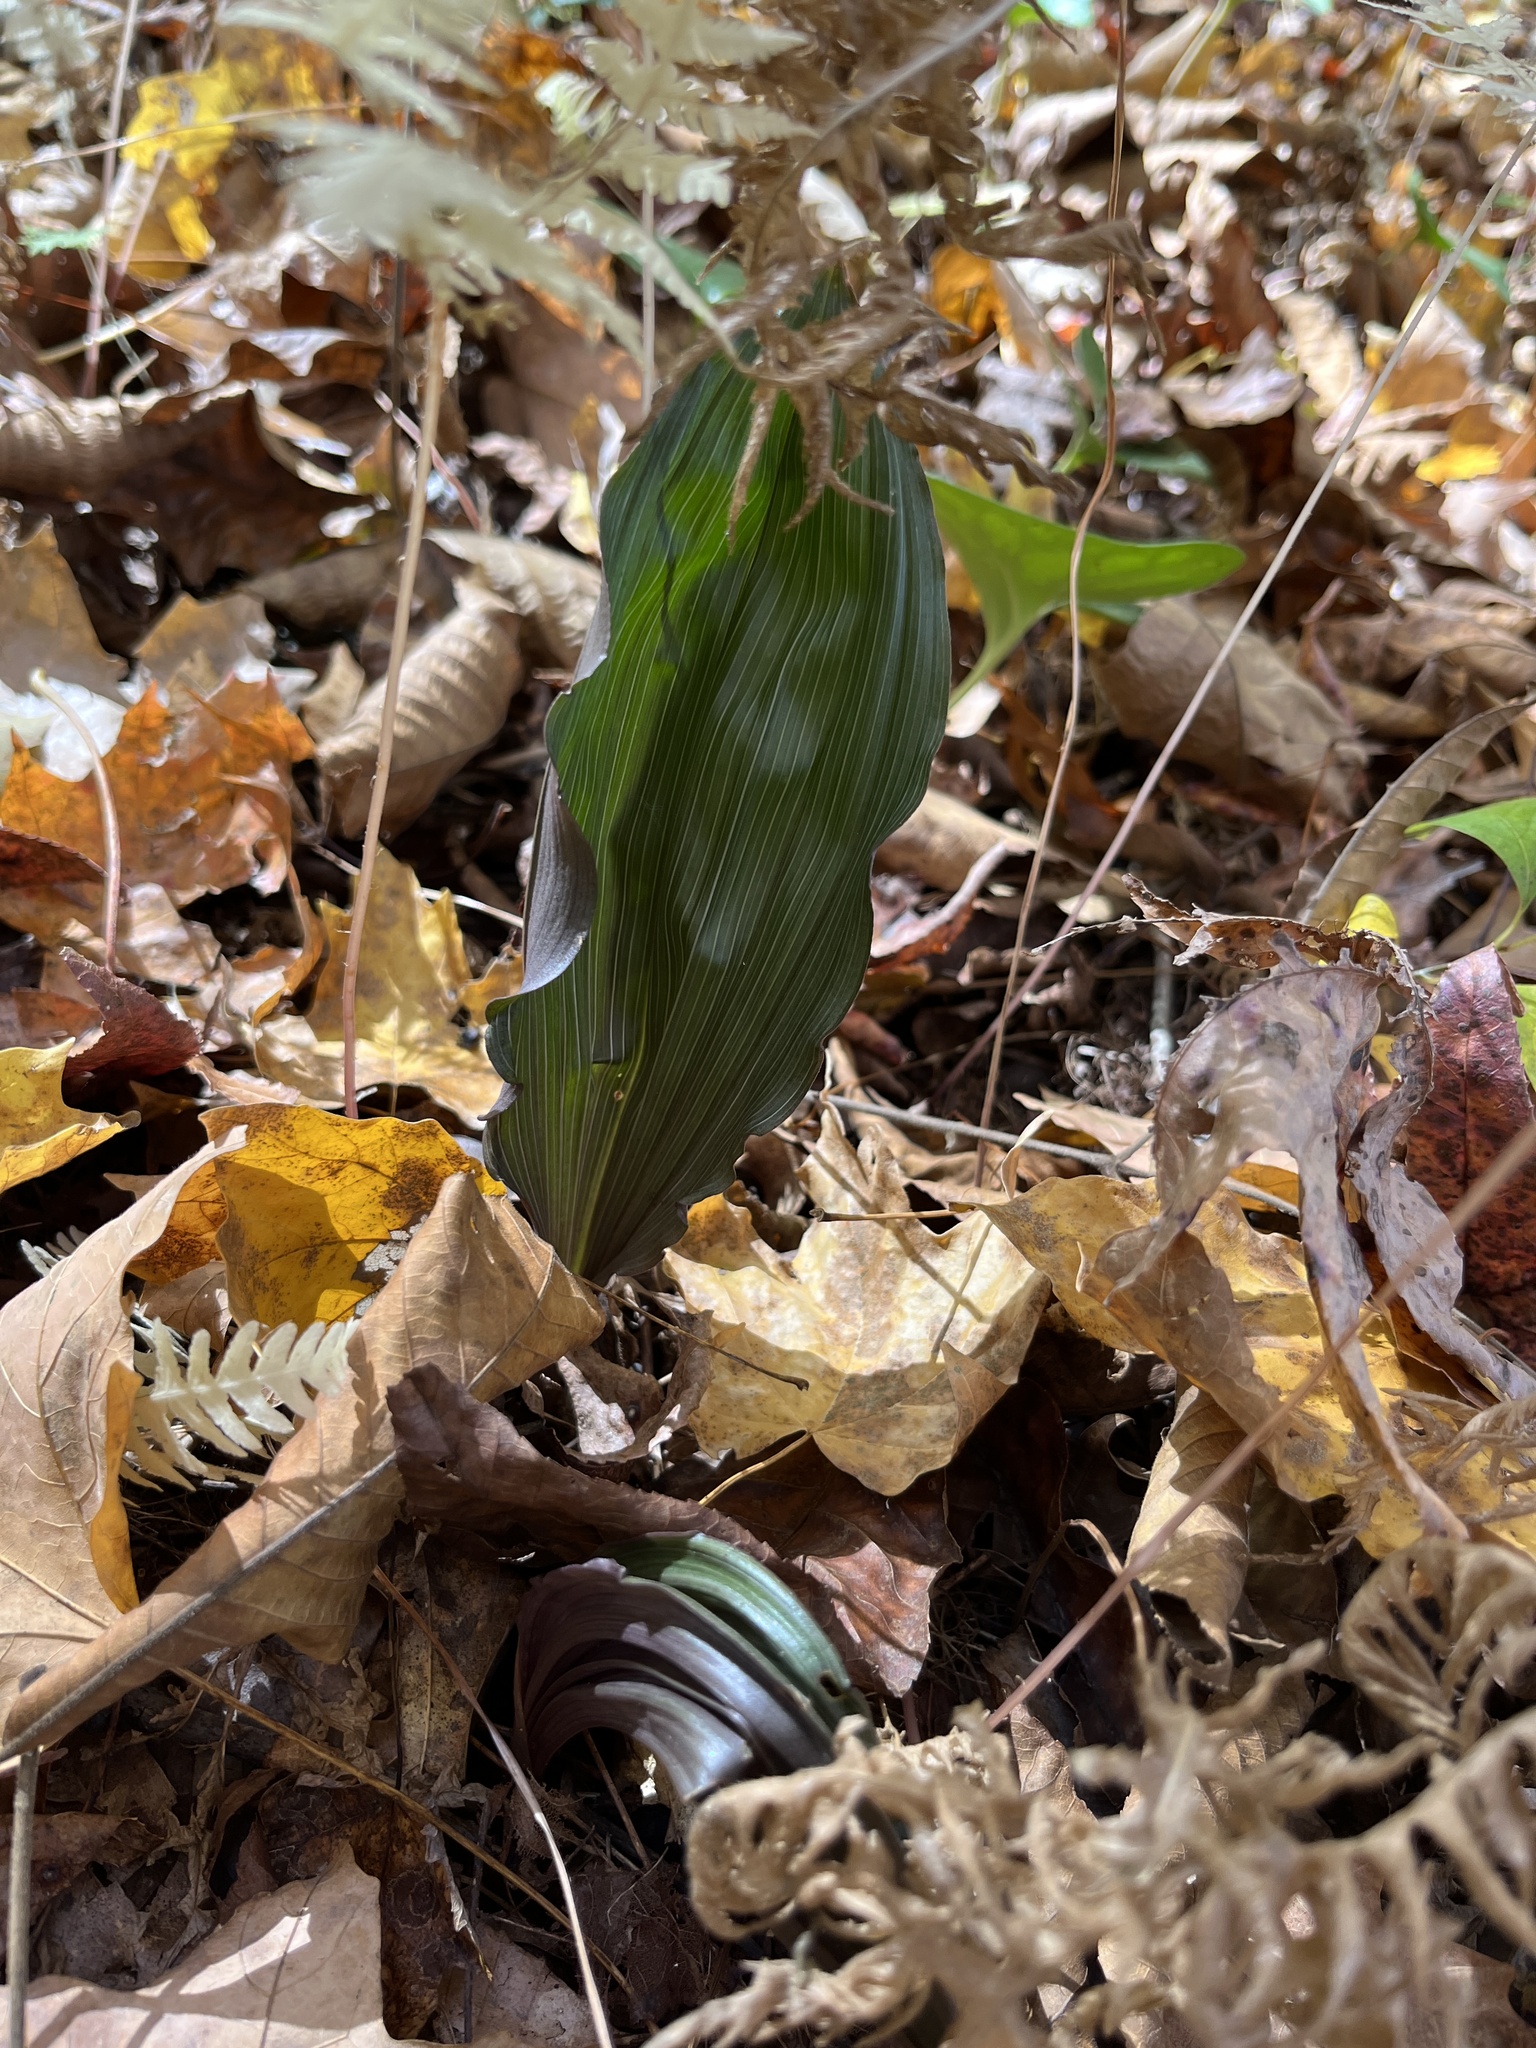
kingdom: Plantae
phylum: Tracheophyta
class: Liliopsida
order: Asparagales
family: Orchidaceae
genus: Aplectrum
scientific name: Aplectrum hyemale
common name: Adam-and-eve
